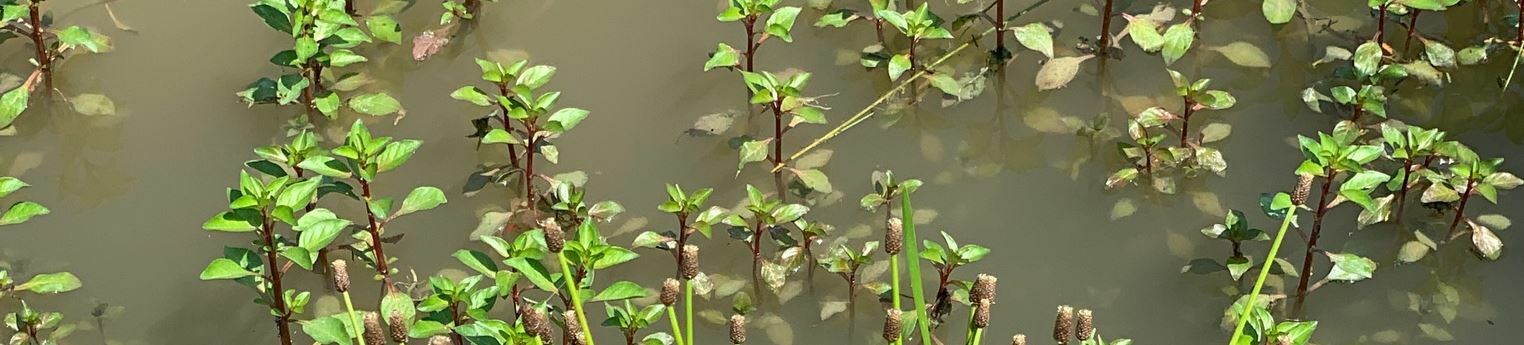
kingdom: Plantae
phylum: Tracheophyta
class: Magnoliopsida
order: Myrtales
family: Onagraceae
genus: Ludwigia
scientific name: Ludwigia palustris
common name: Hampshire-purslane
